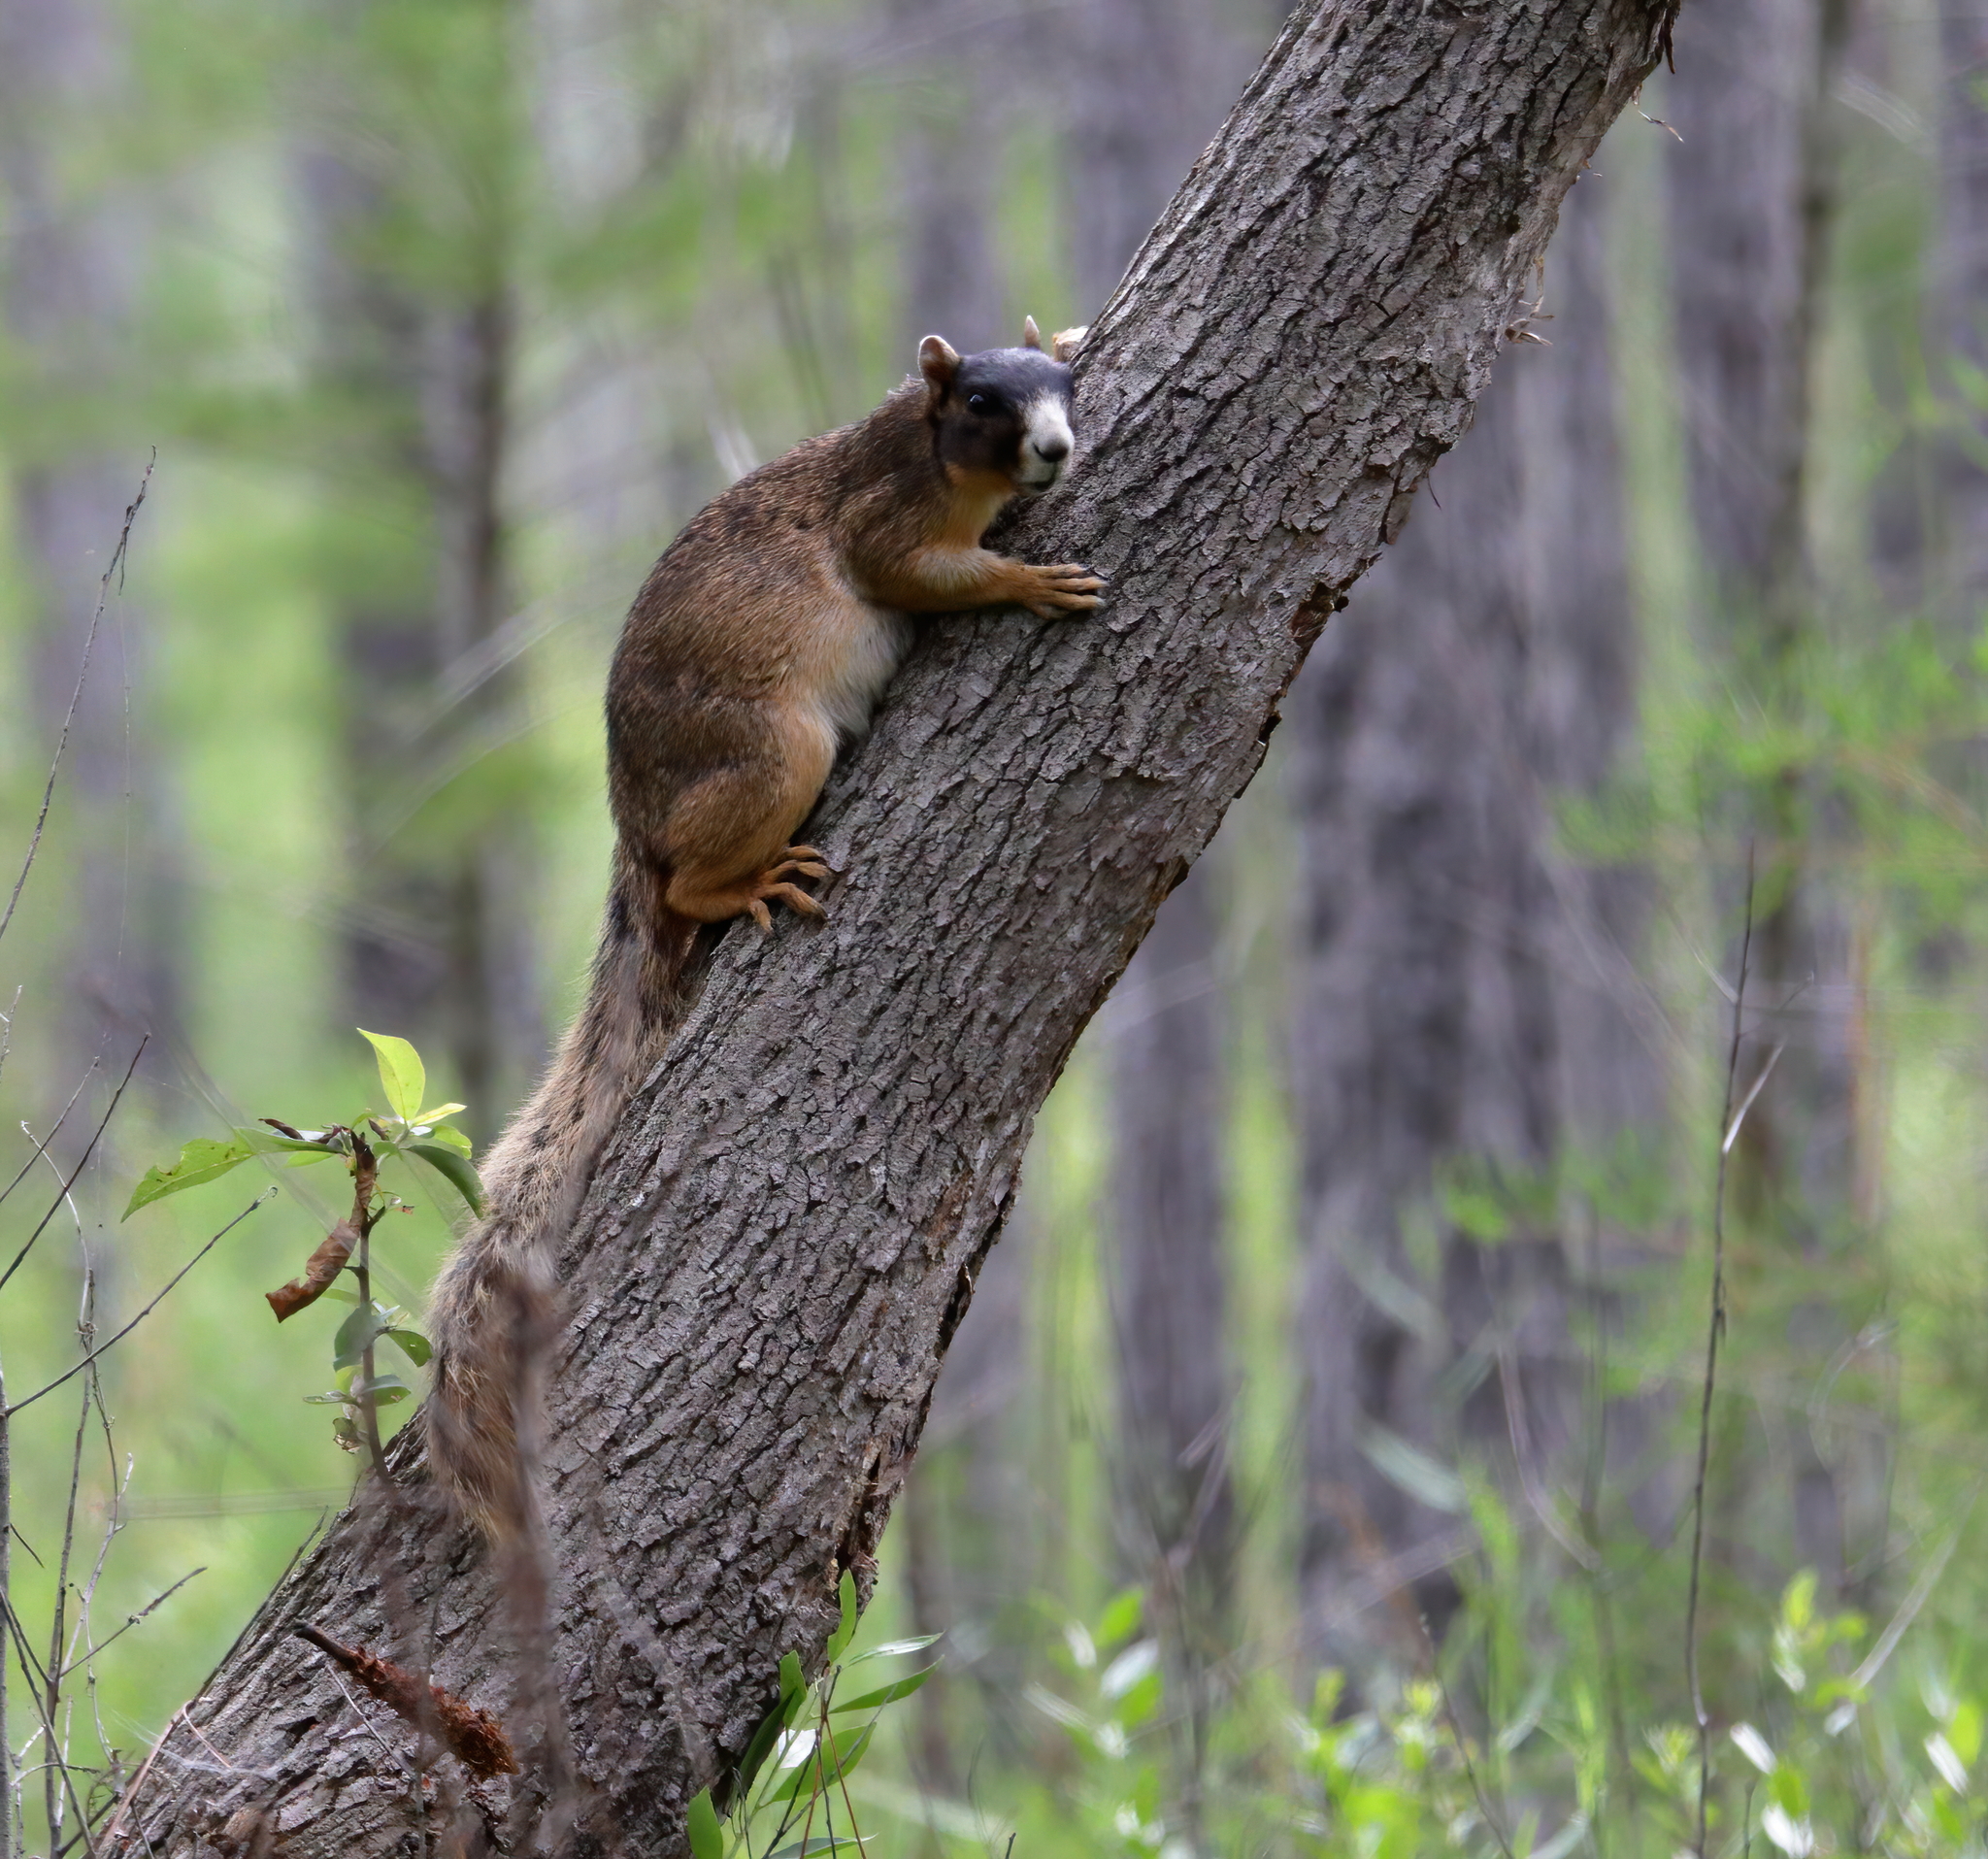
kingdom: Animalia
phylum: Chordata
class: Mammalia
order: Rodentia
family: Sciuridae
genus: Sciurus
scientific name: Sciurus niger
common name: Fox squirrel
